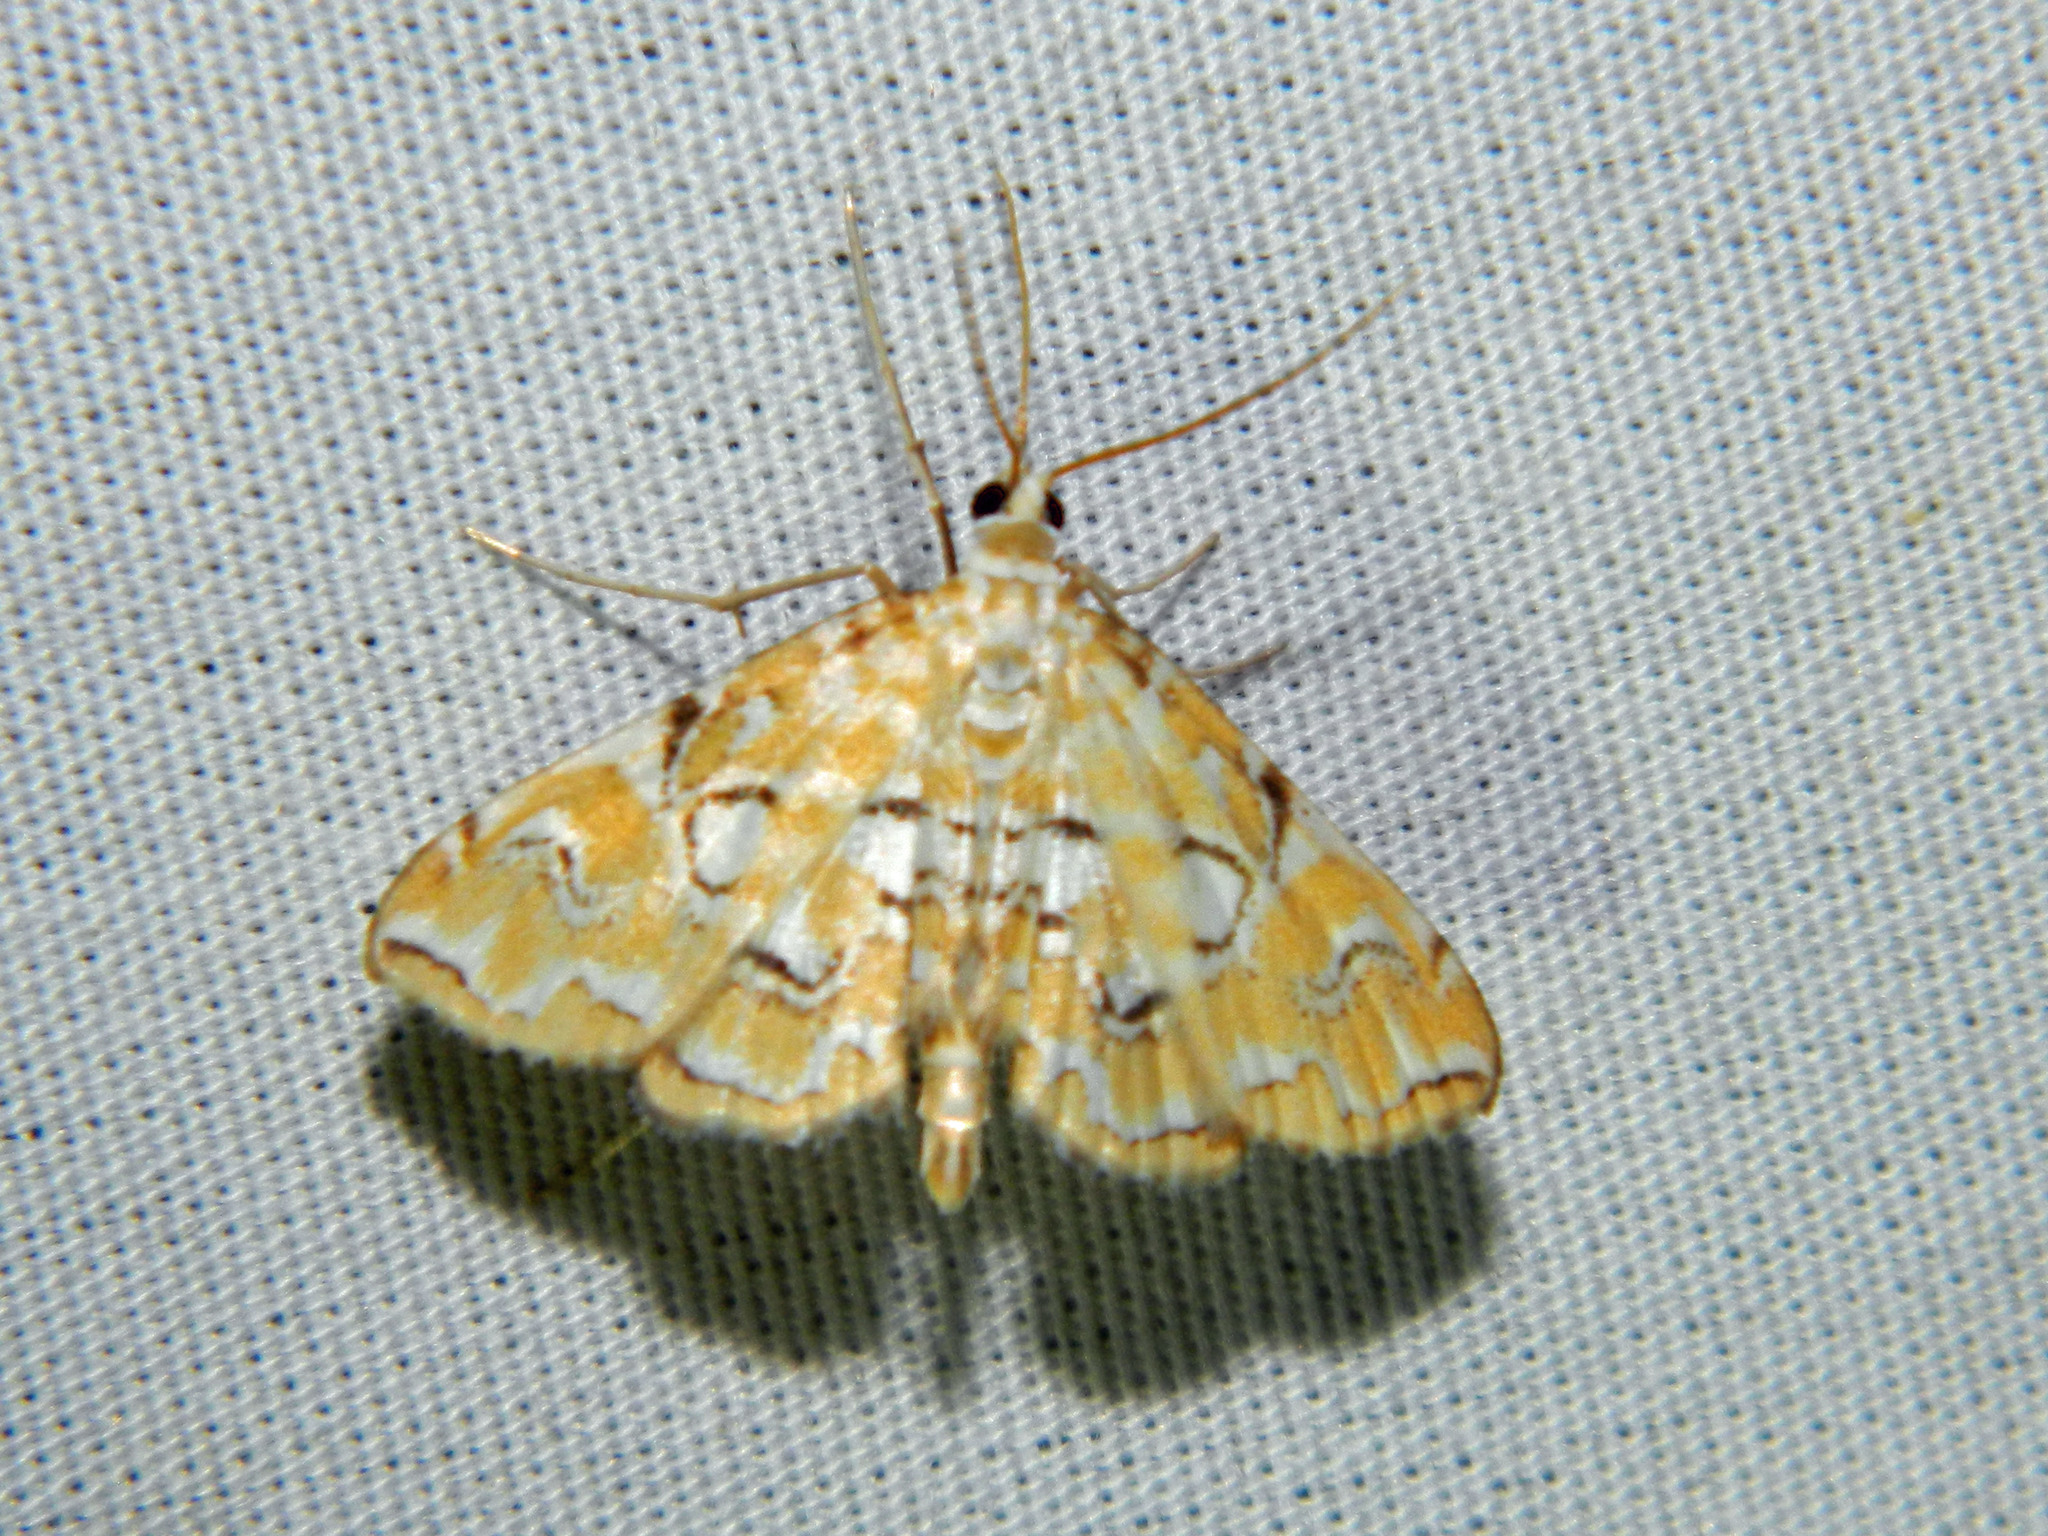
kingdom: Animalia
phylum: Arthropoda
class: Insecta
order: Lepidoptera
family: Crambidae
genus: Elophila
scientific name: Elophila icciusalis
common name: Pondside pyralid moth
